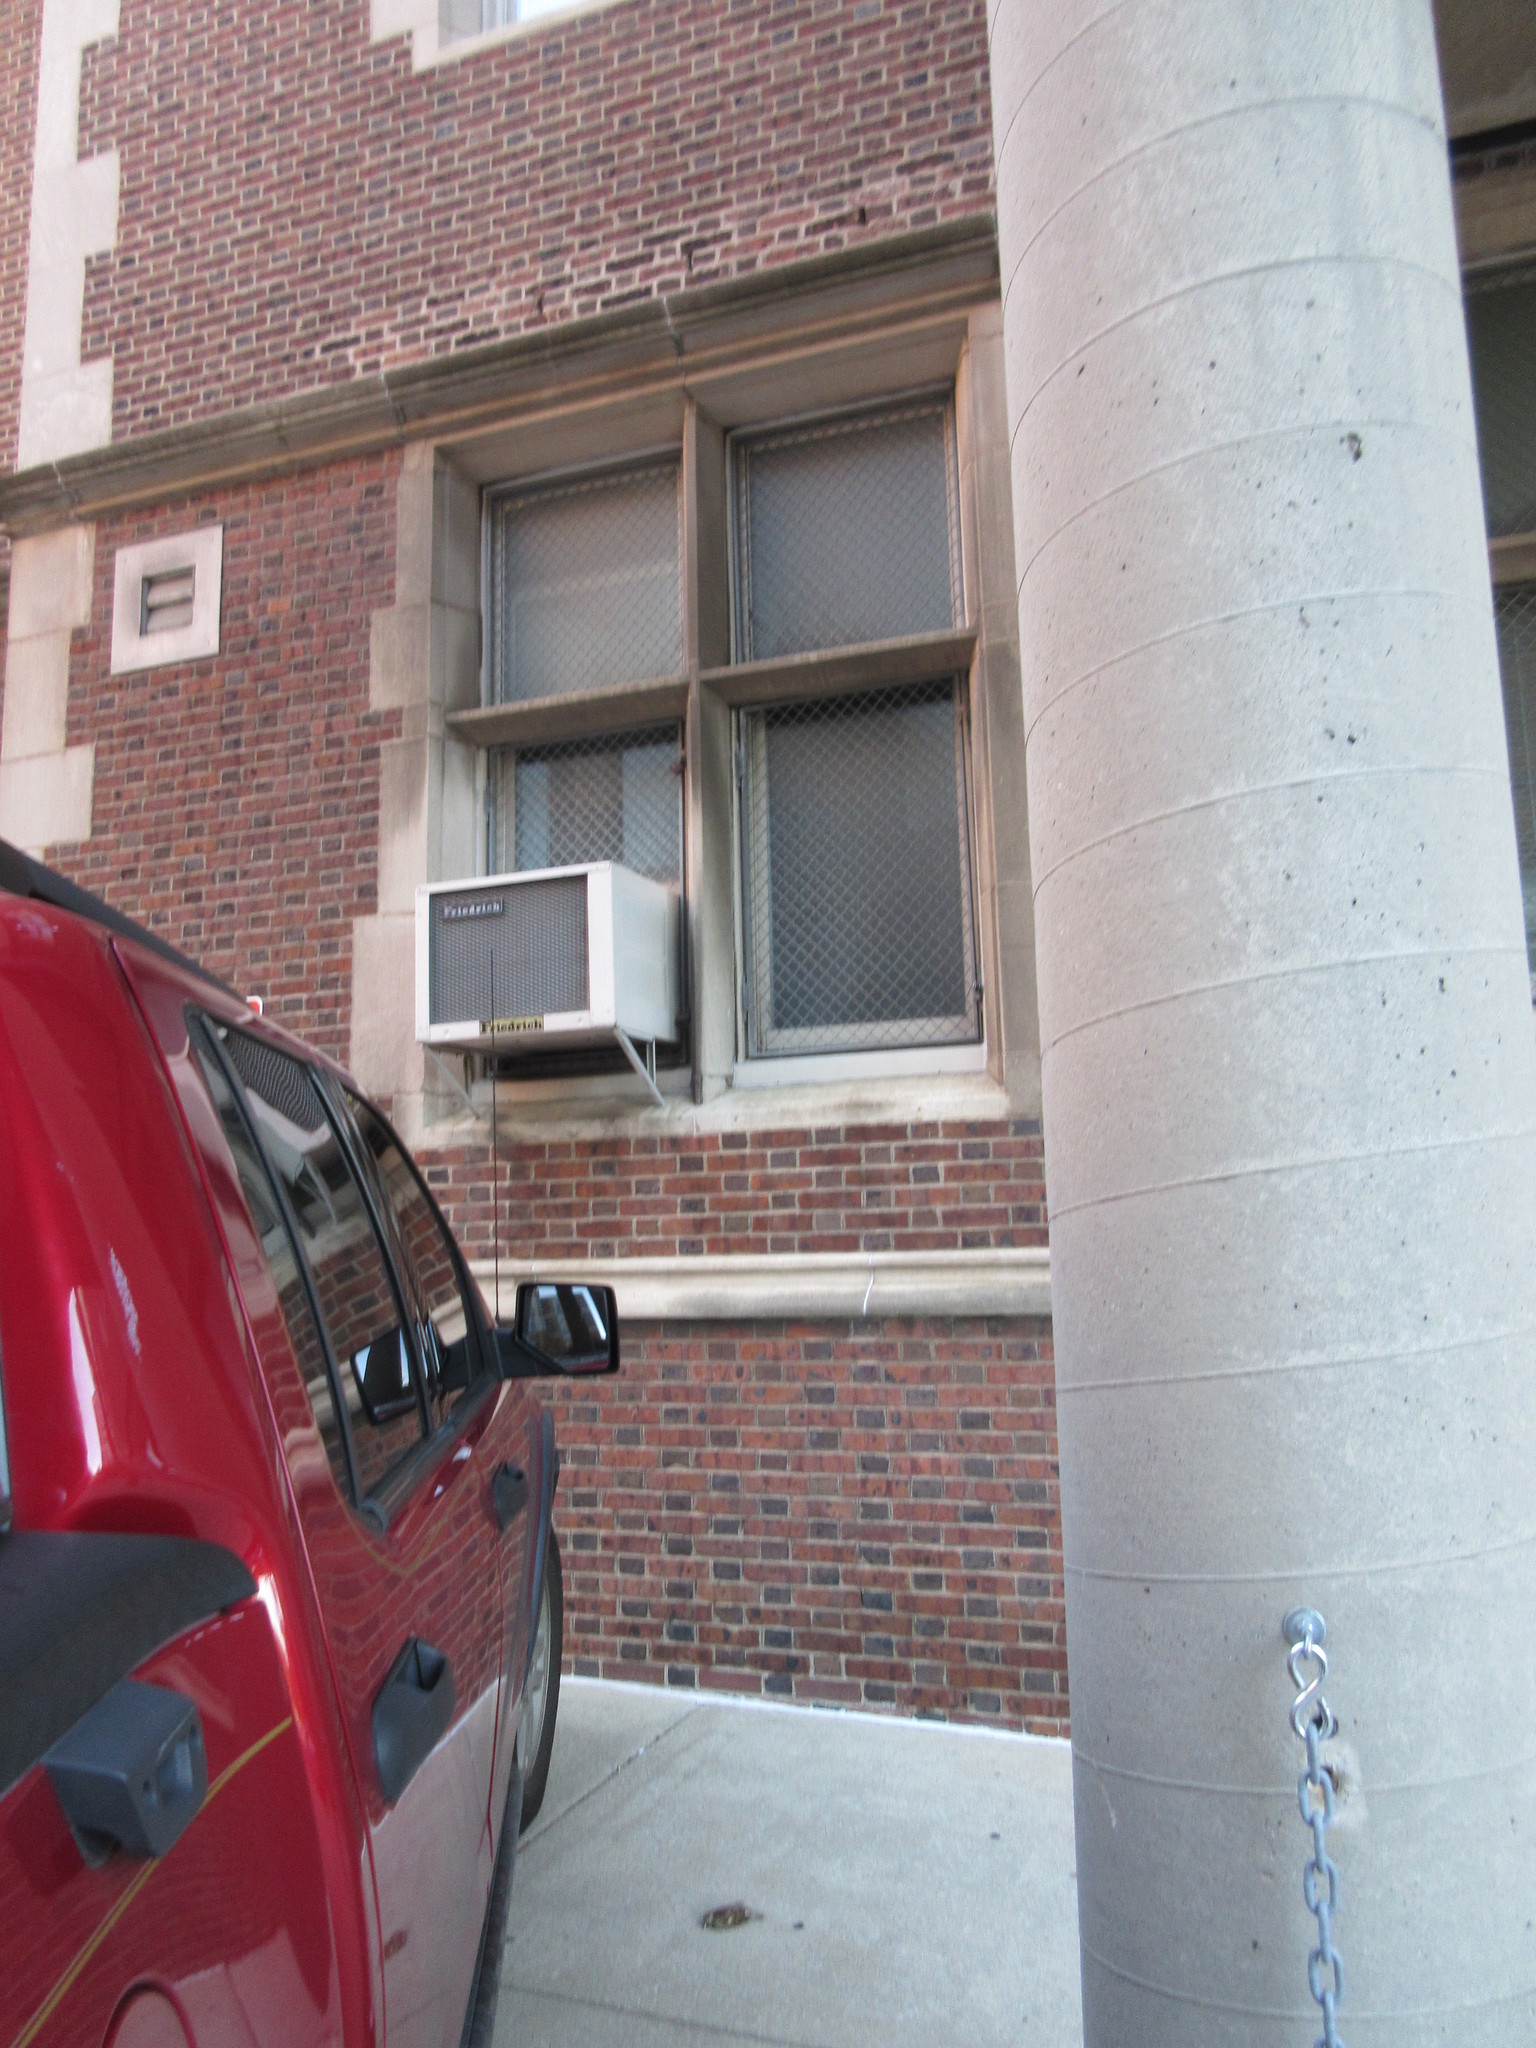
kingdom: Animalia
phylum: Chordata
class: Aves
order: Passeriformes
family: Passeridae
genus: Passer
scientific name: Passer domesticus
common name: House sparrow
